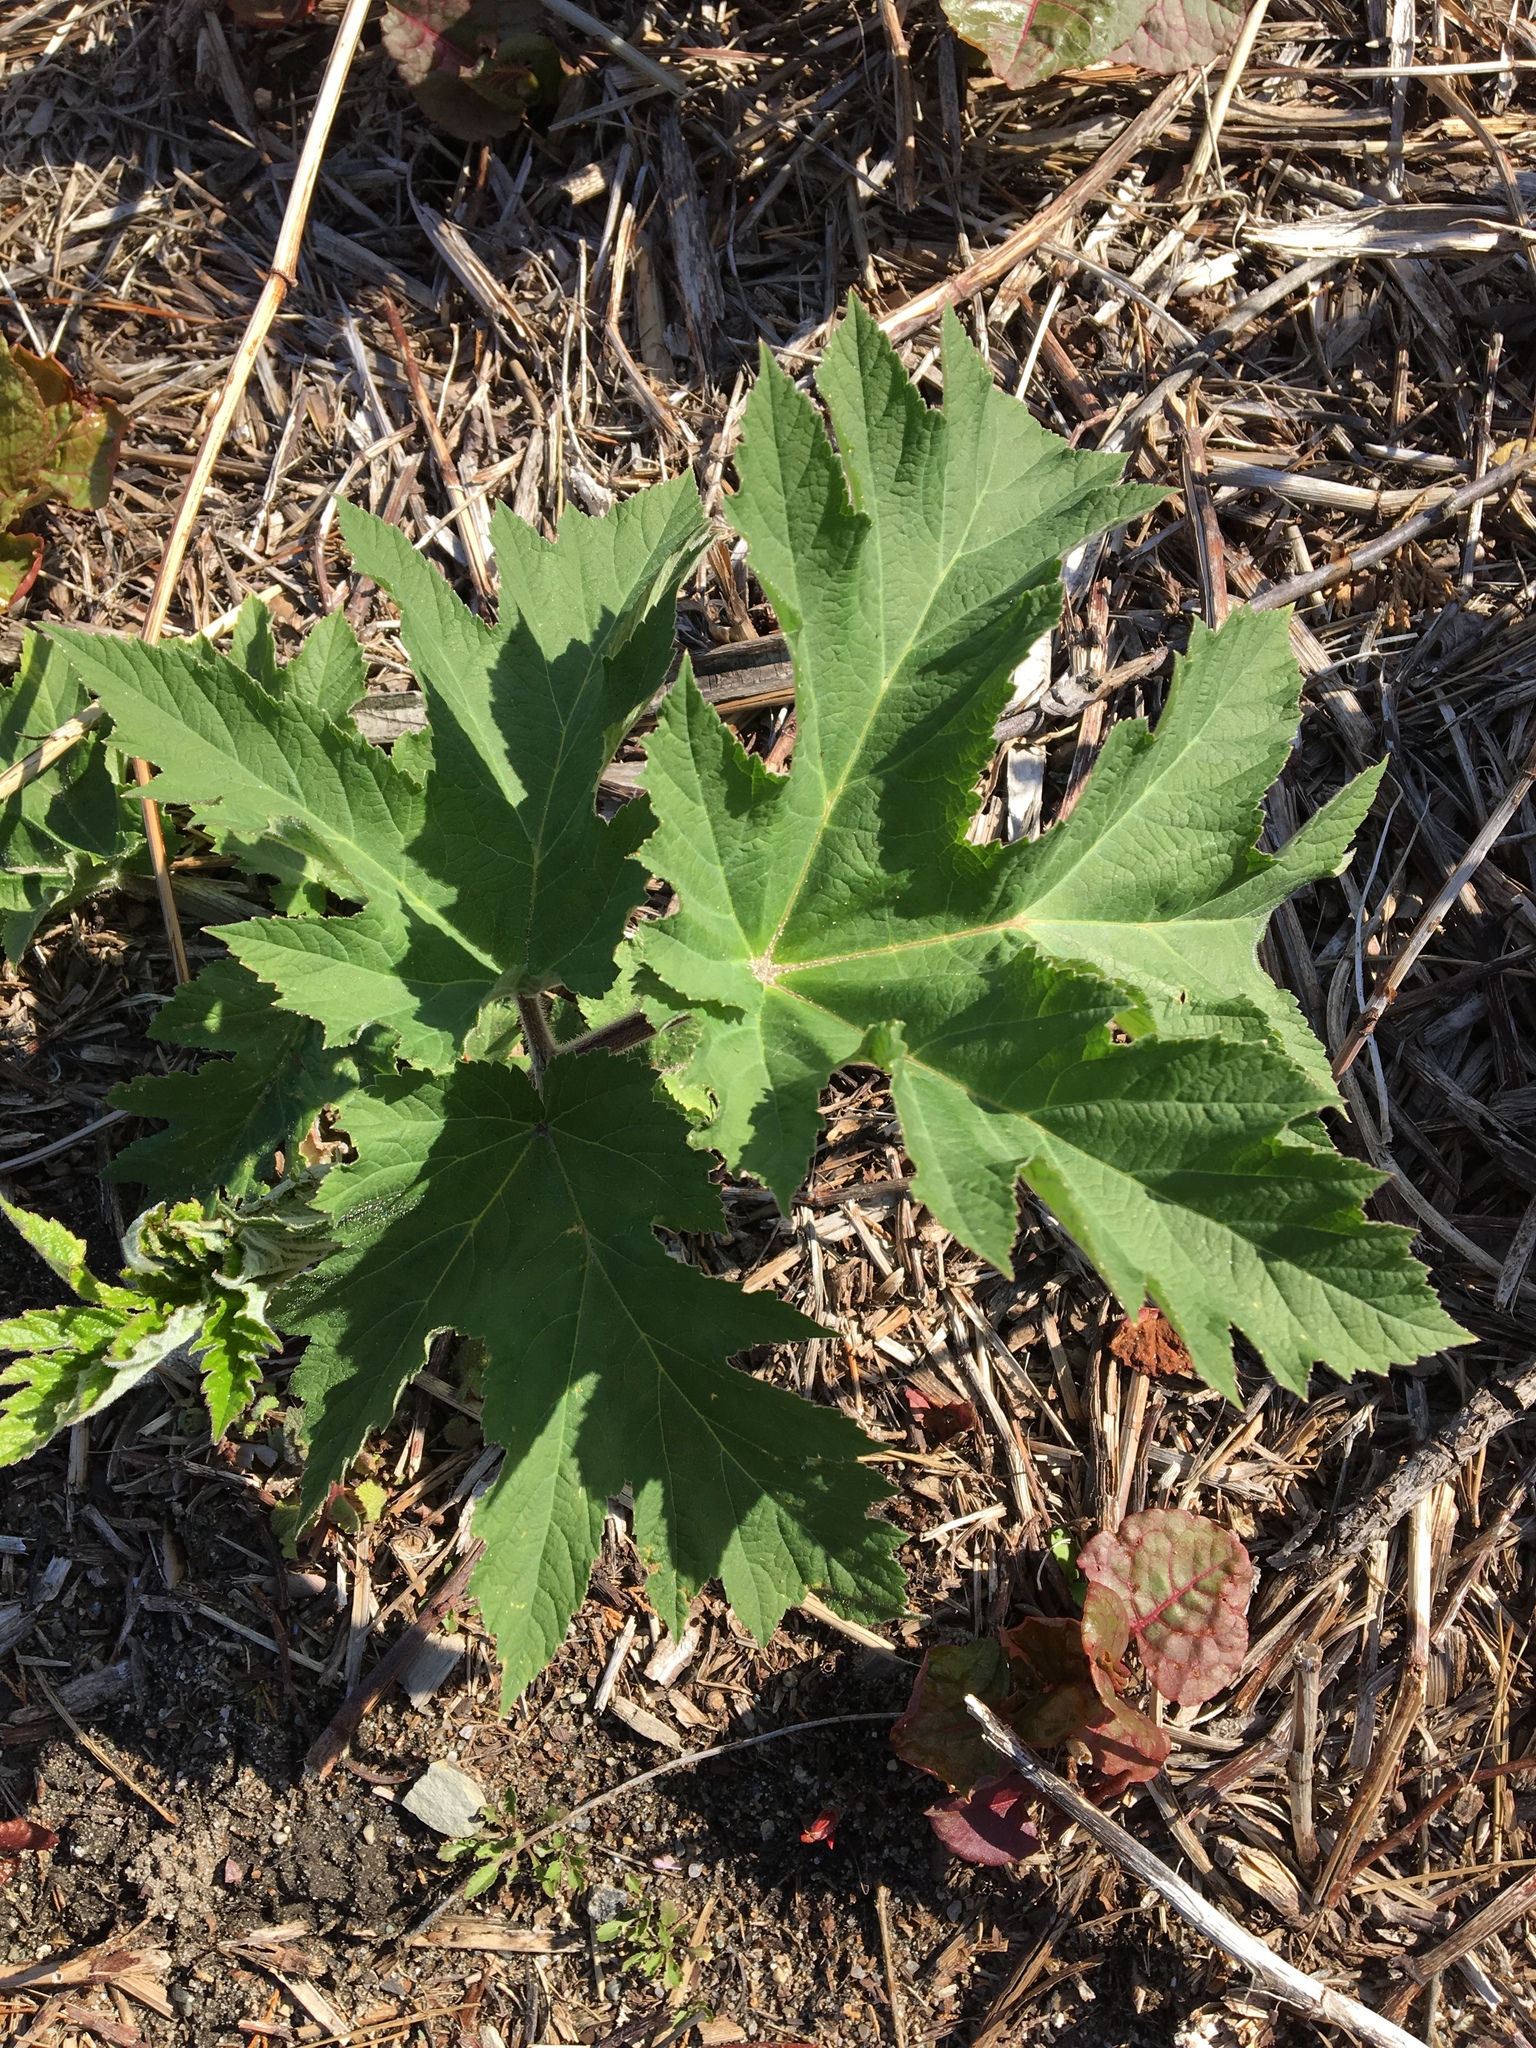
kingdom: Plantae
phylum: Tracheophyta
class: Magnoliopsida
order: Apiales
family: Apiaceae
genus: Heracleum
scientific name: Heracleum maximum
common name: American cow parsnip
